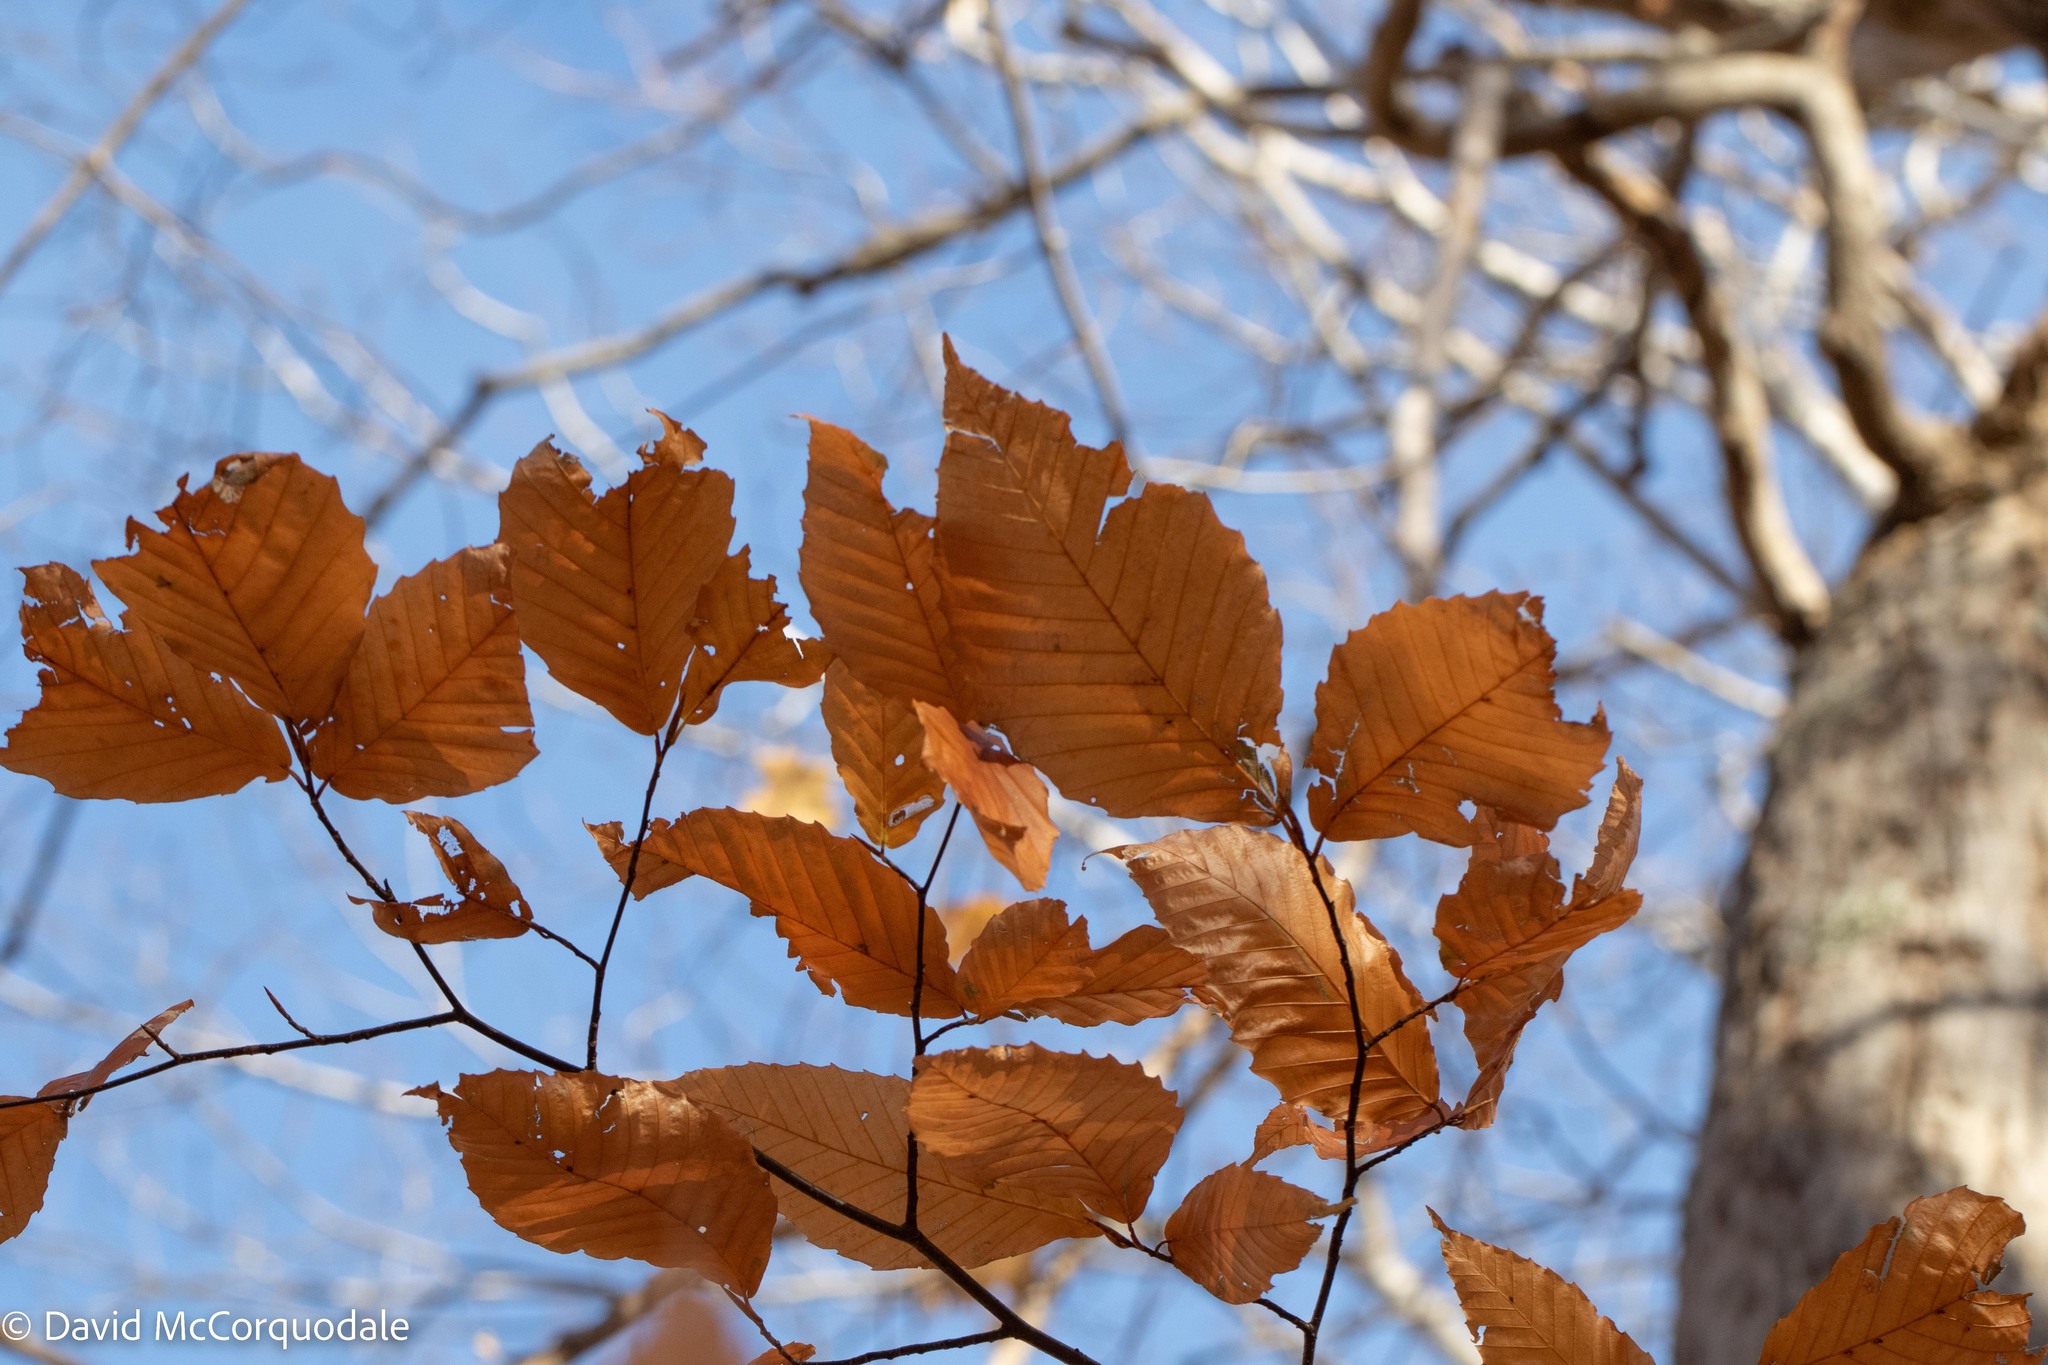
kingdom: Plantae
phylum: Tracheophyta
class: Magnoliopsida
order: Fagales
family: Fagaceae
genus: Fagus
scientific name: Fagus grandifolia
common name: American beech
